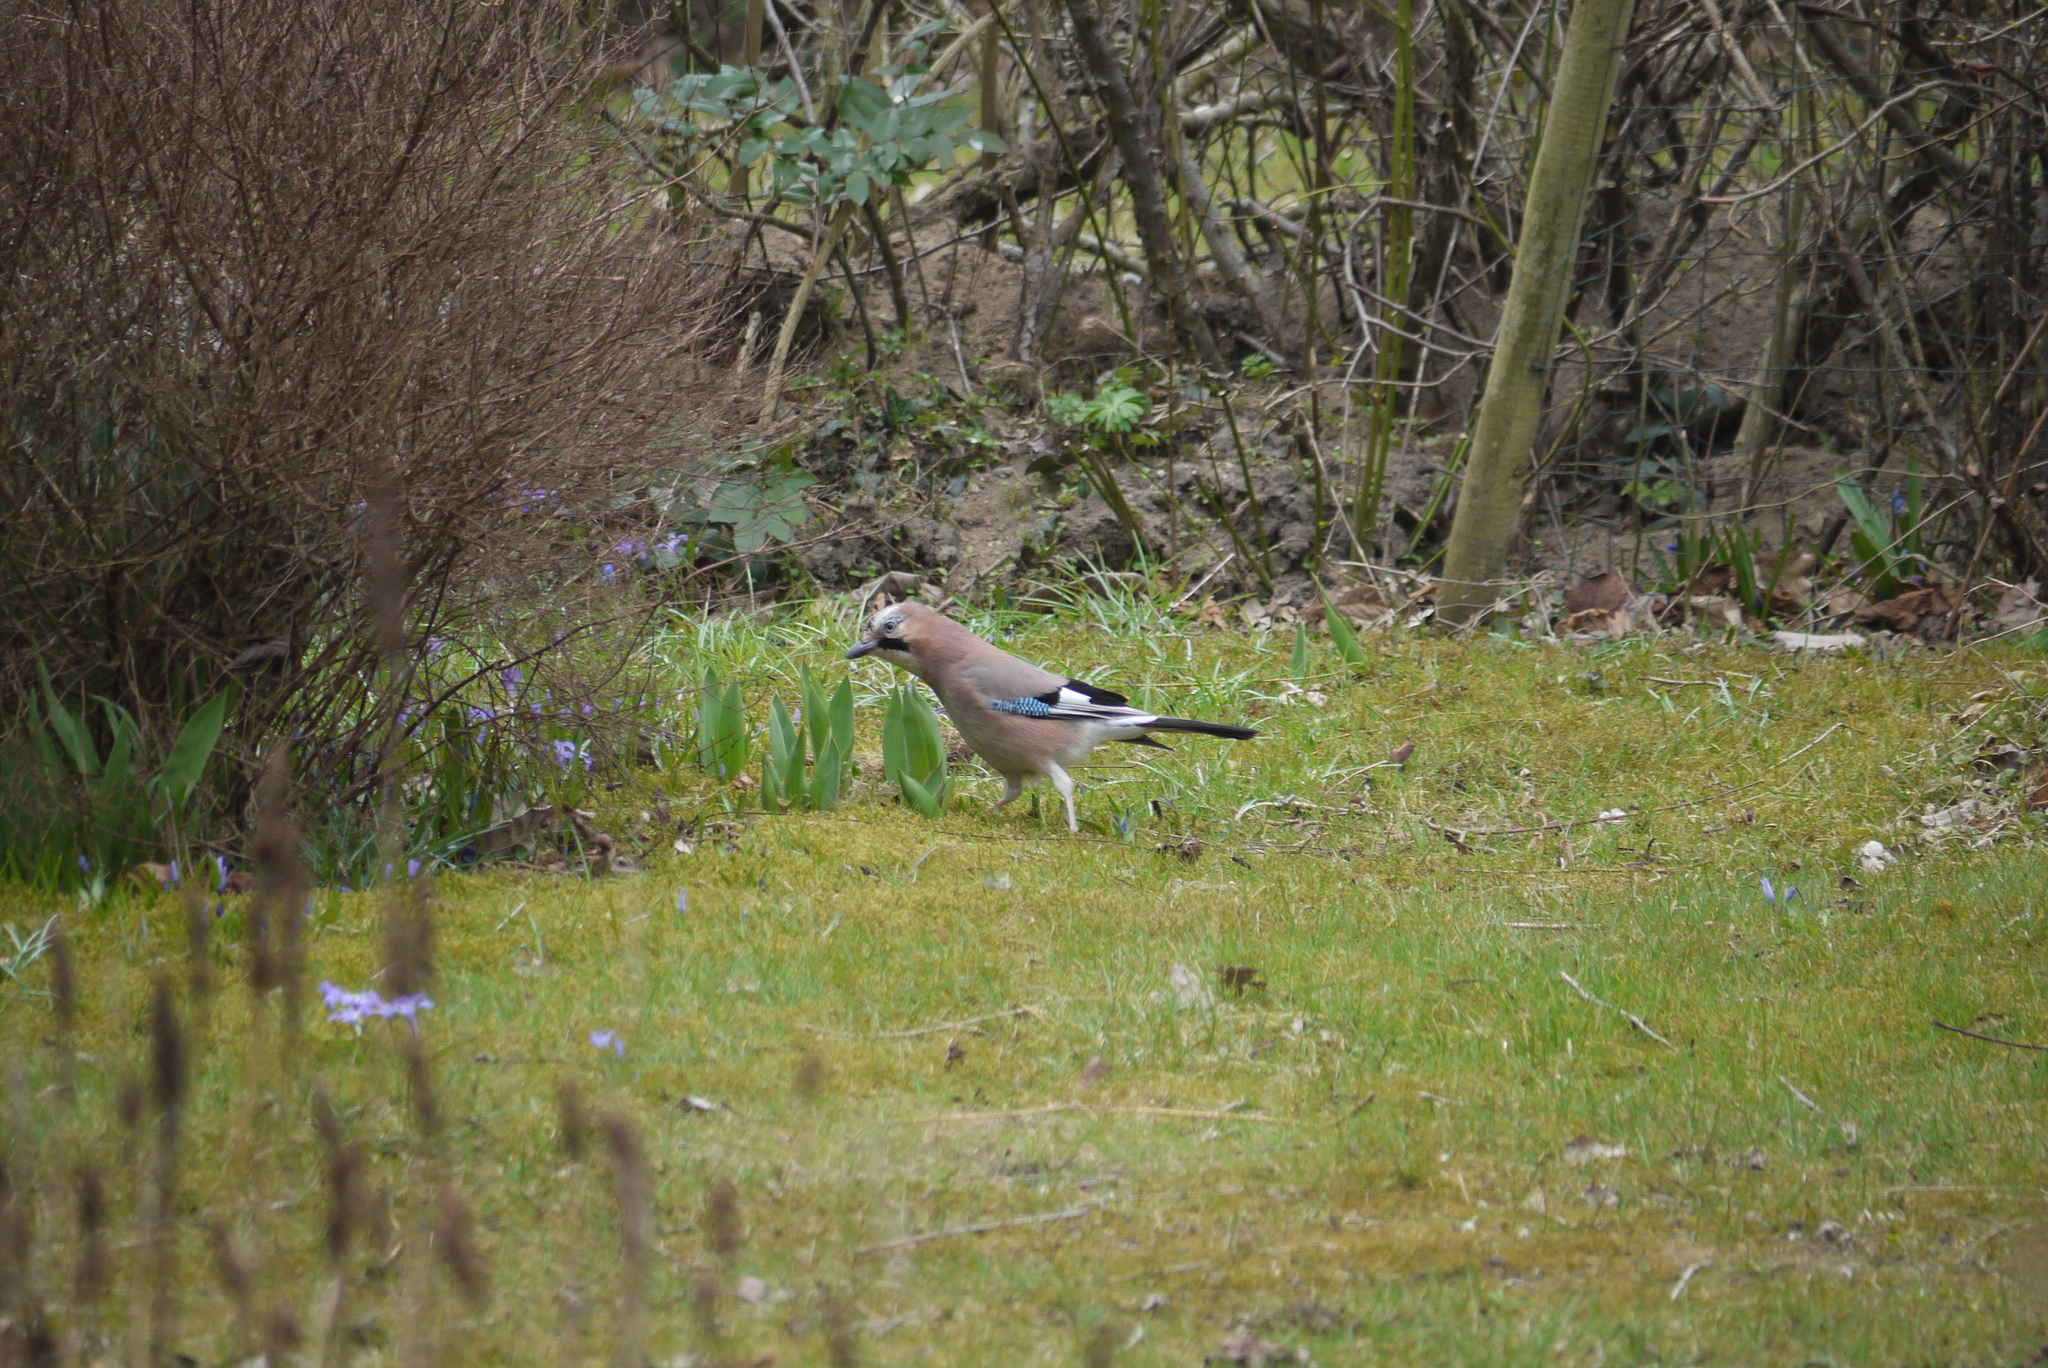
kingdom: Animalia
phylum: Chordata
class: Aves
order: Passeriformes
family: Corvidae
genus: Garrulus
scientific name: Garrulus glandarius
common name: Eurasian jay
